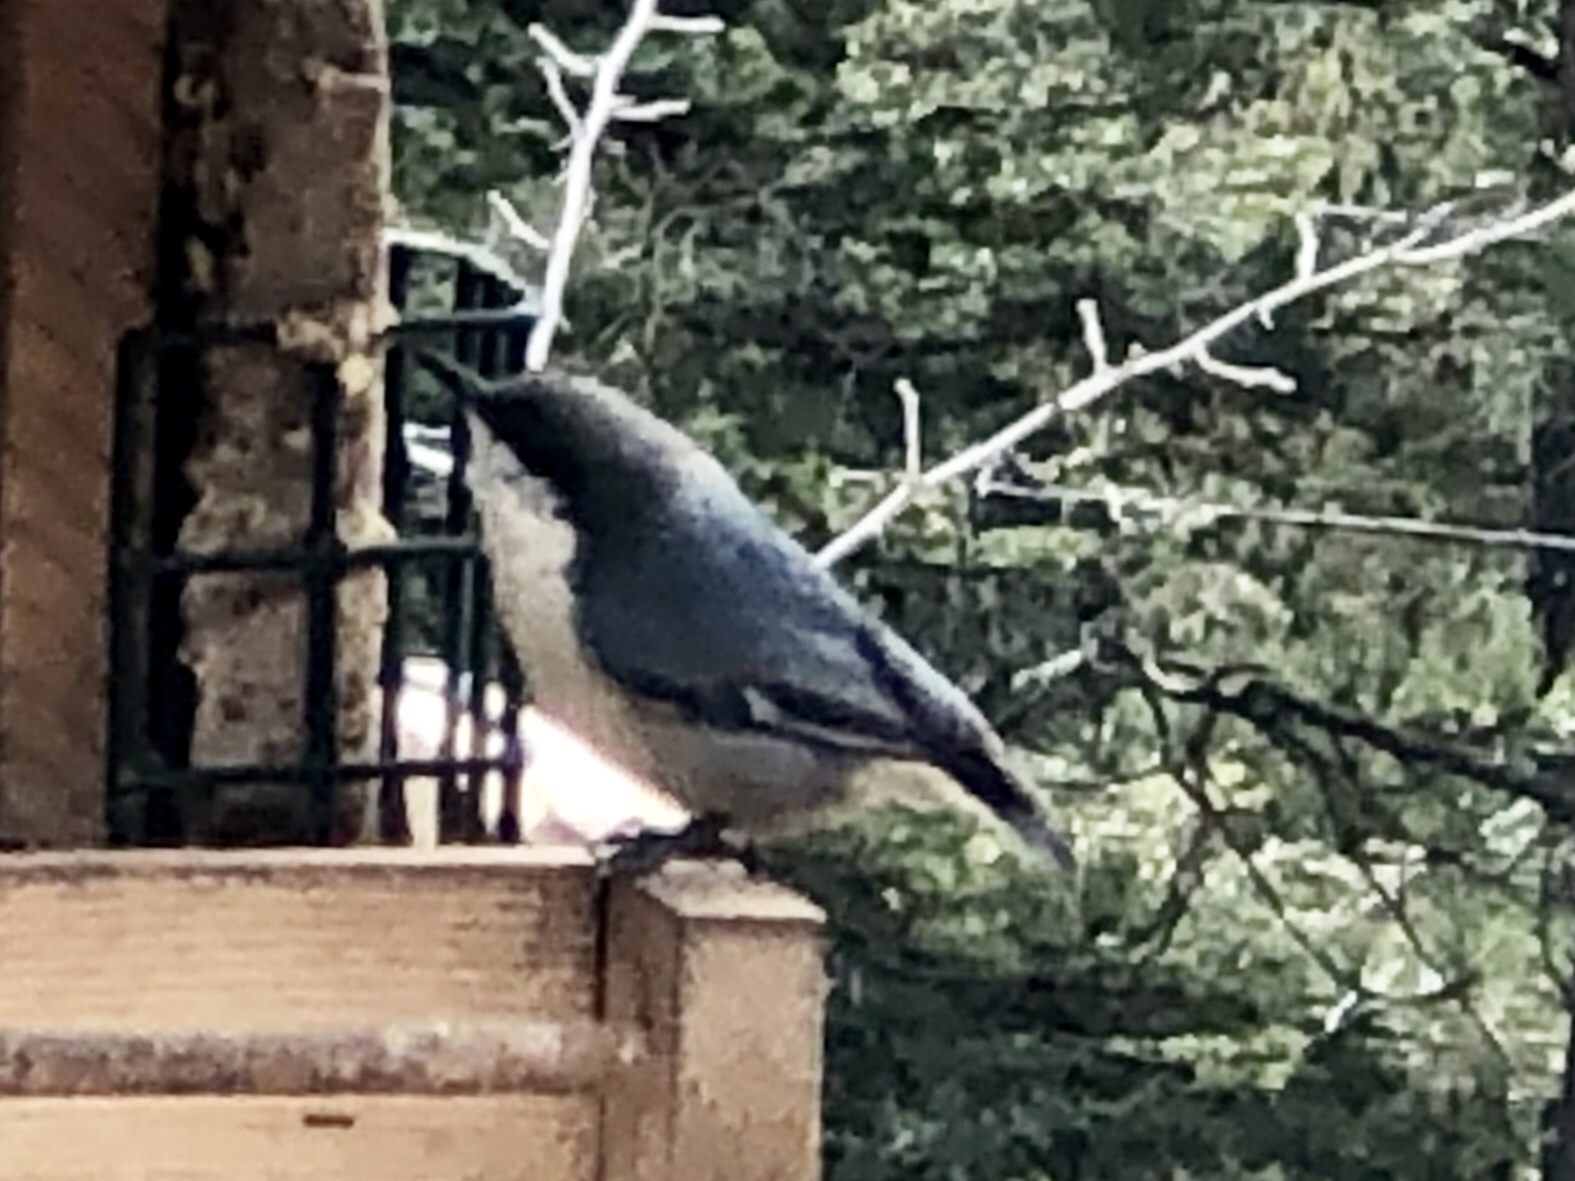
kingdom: Animalia
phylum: Chordata
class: Aves
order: Passeriformes
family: Sittidae
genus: Sitta
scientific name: Sitta pygmaea
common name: Pygmy nuthatch
